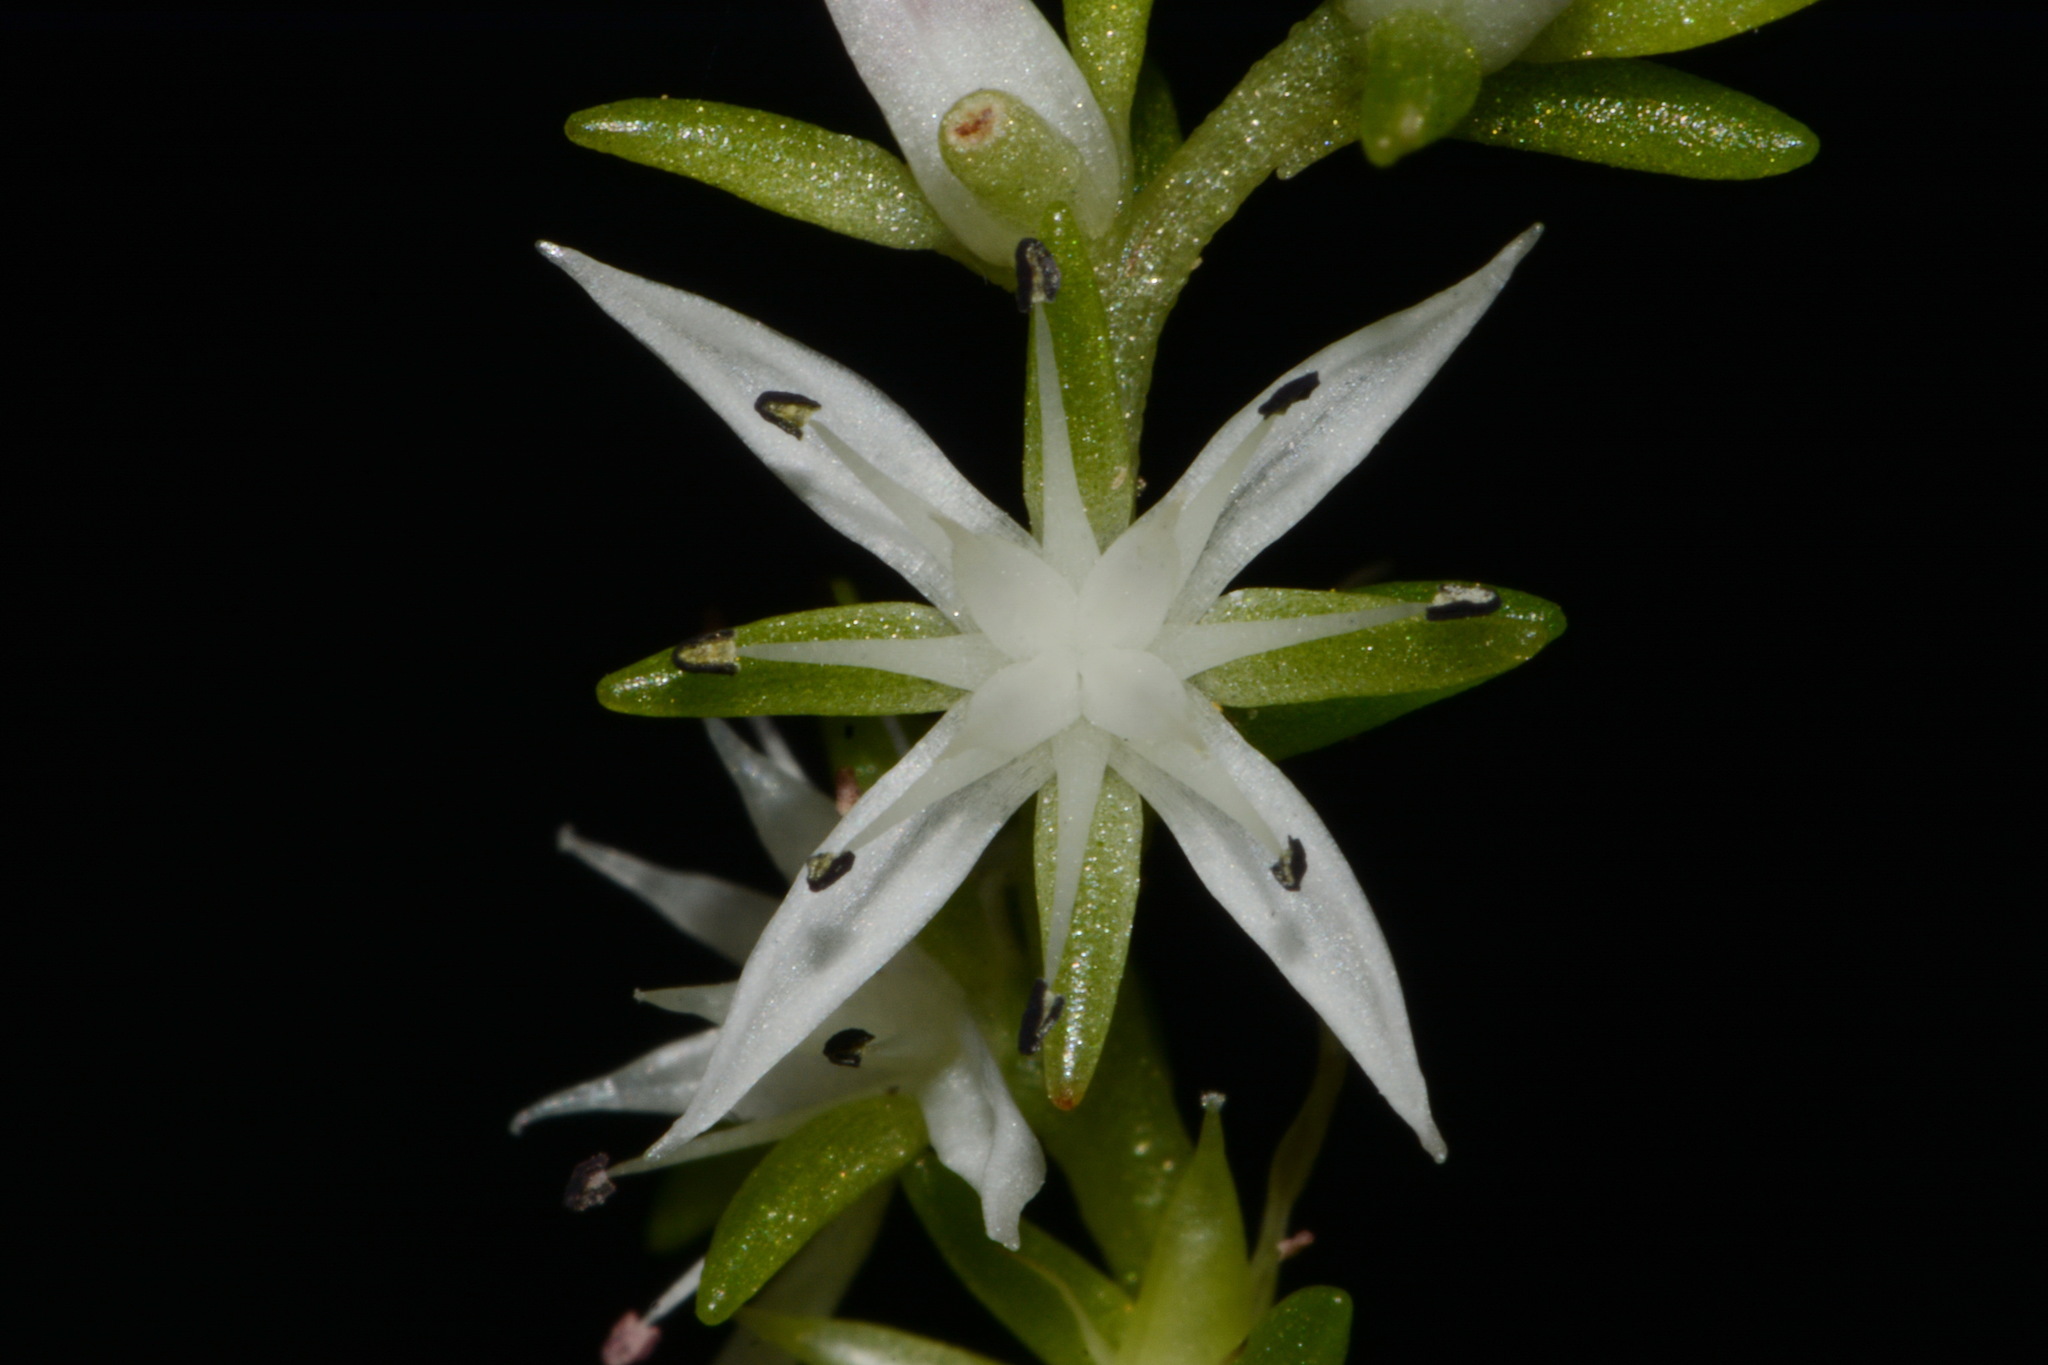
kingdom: Plantae
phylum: Tracheophyta
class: Magnoliopsida
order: Saxifragales
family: Crassulaceae
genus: Sedum
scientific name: Sedum nevii
